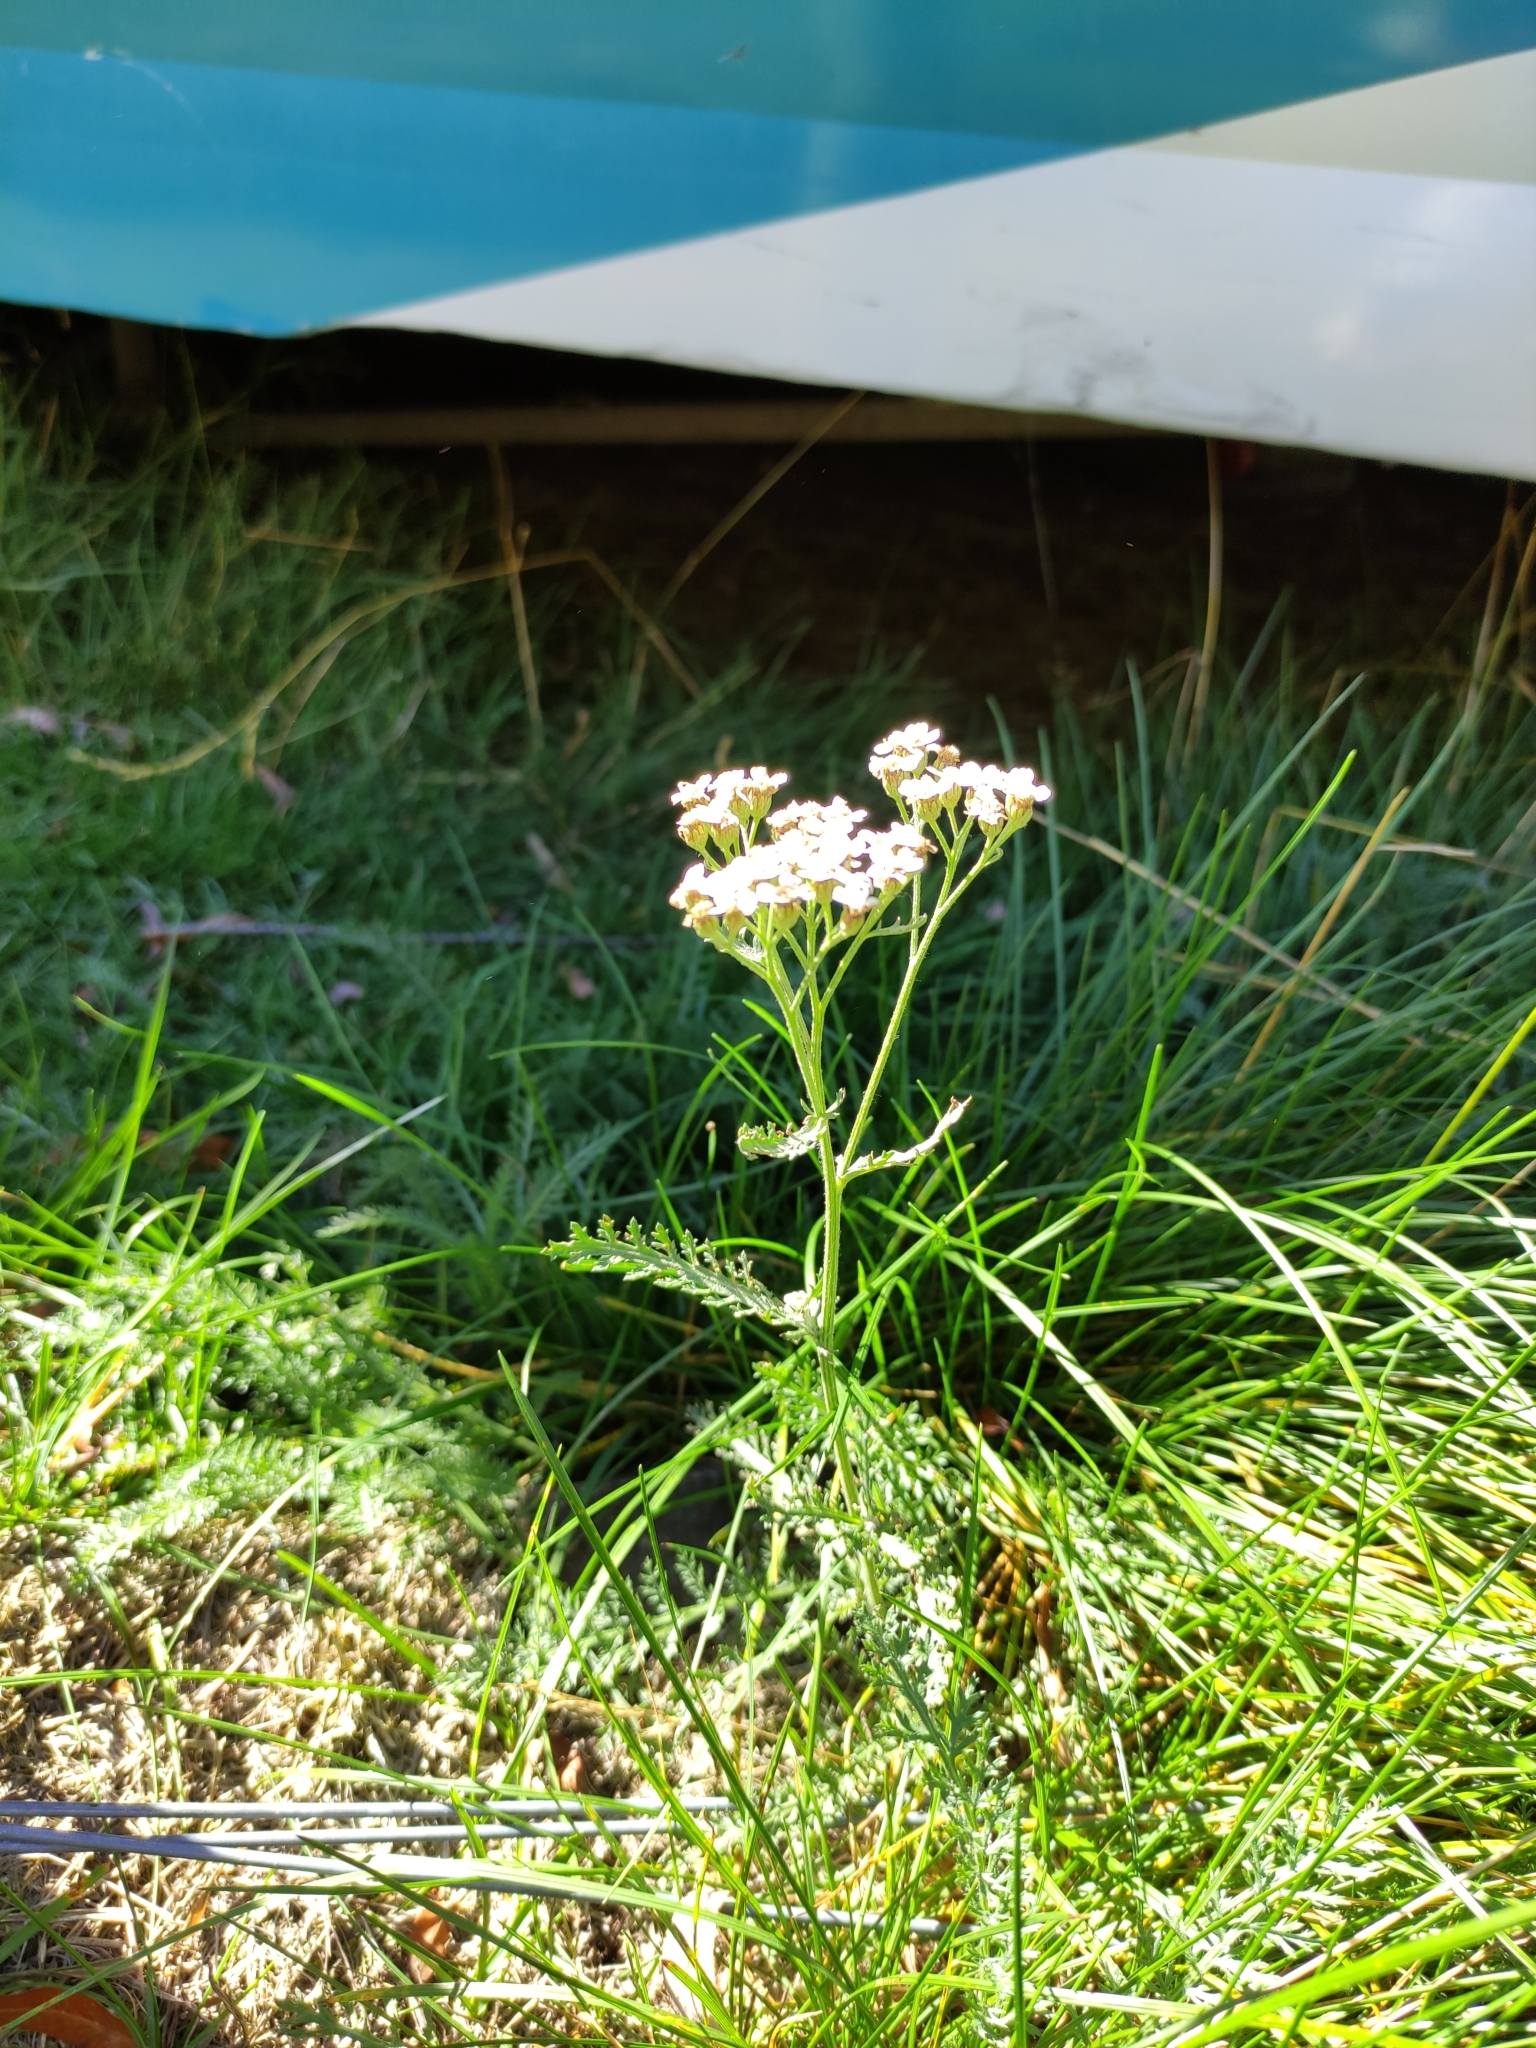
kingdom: Plantae
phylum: Tracheophyta
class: Magnoliopsida
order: Asterales
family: Asteraceae
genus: Achillea
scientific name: Achillea millefolium
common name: Yarrow
